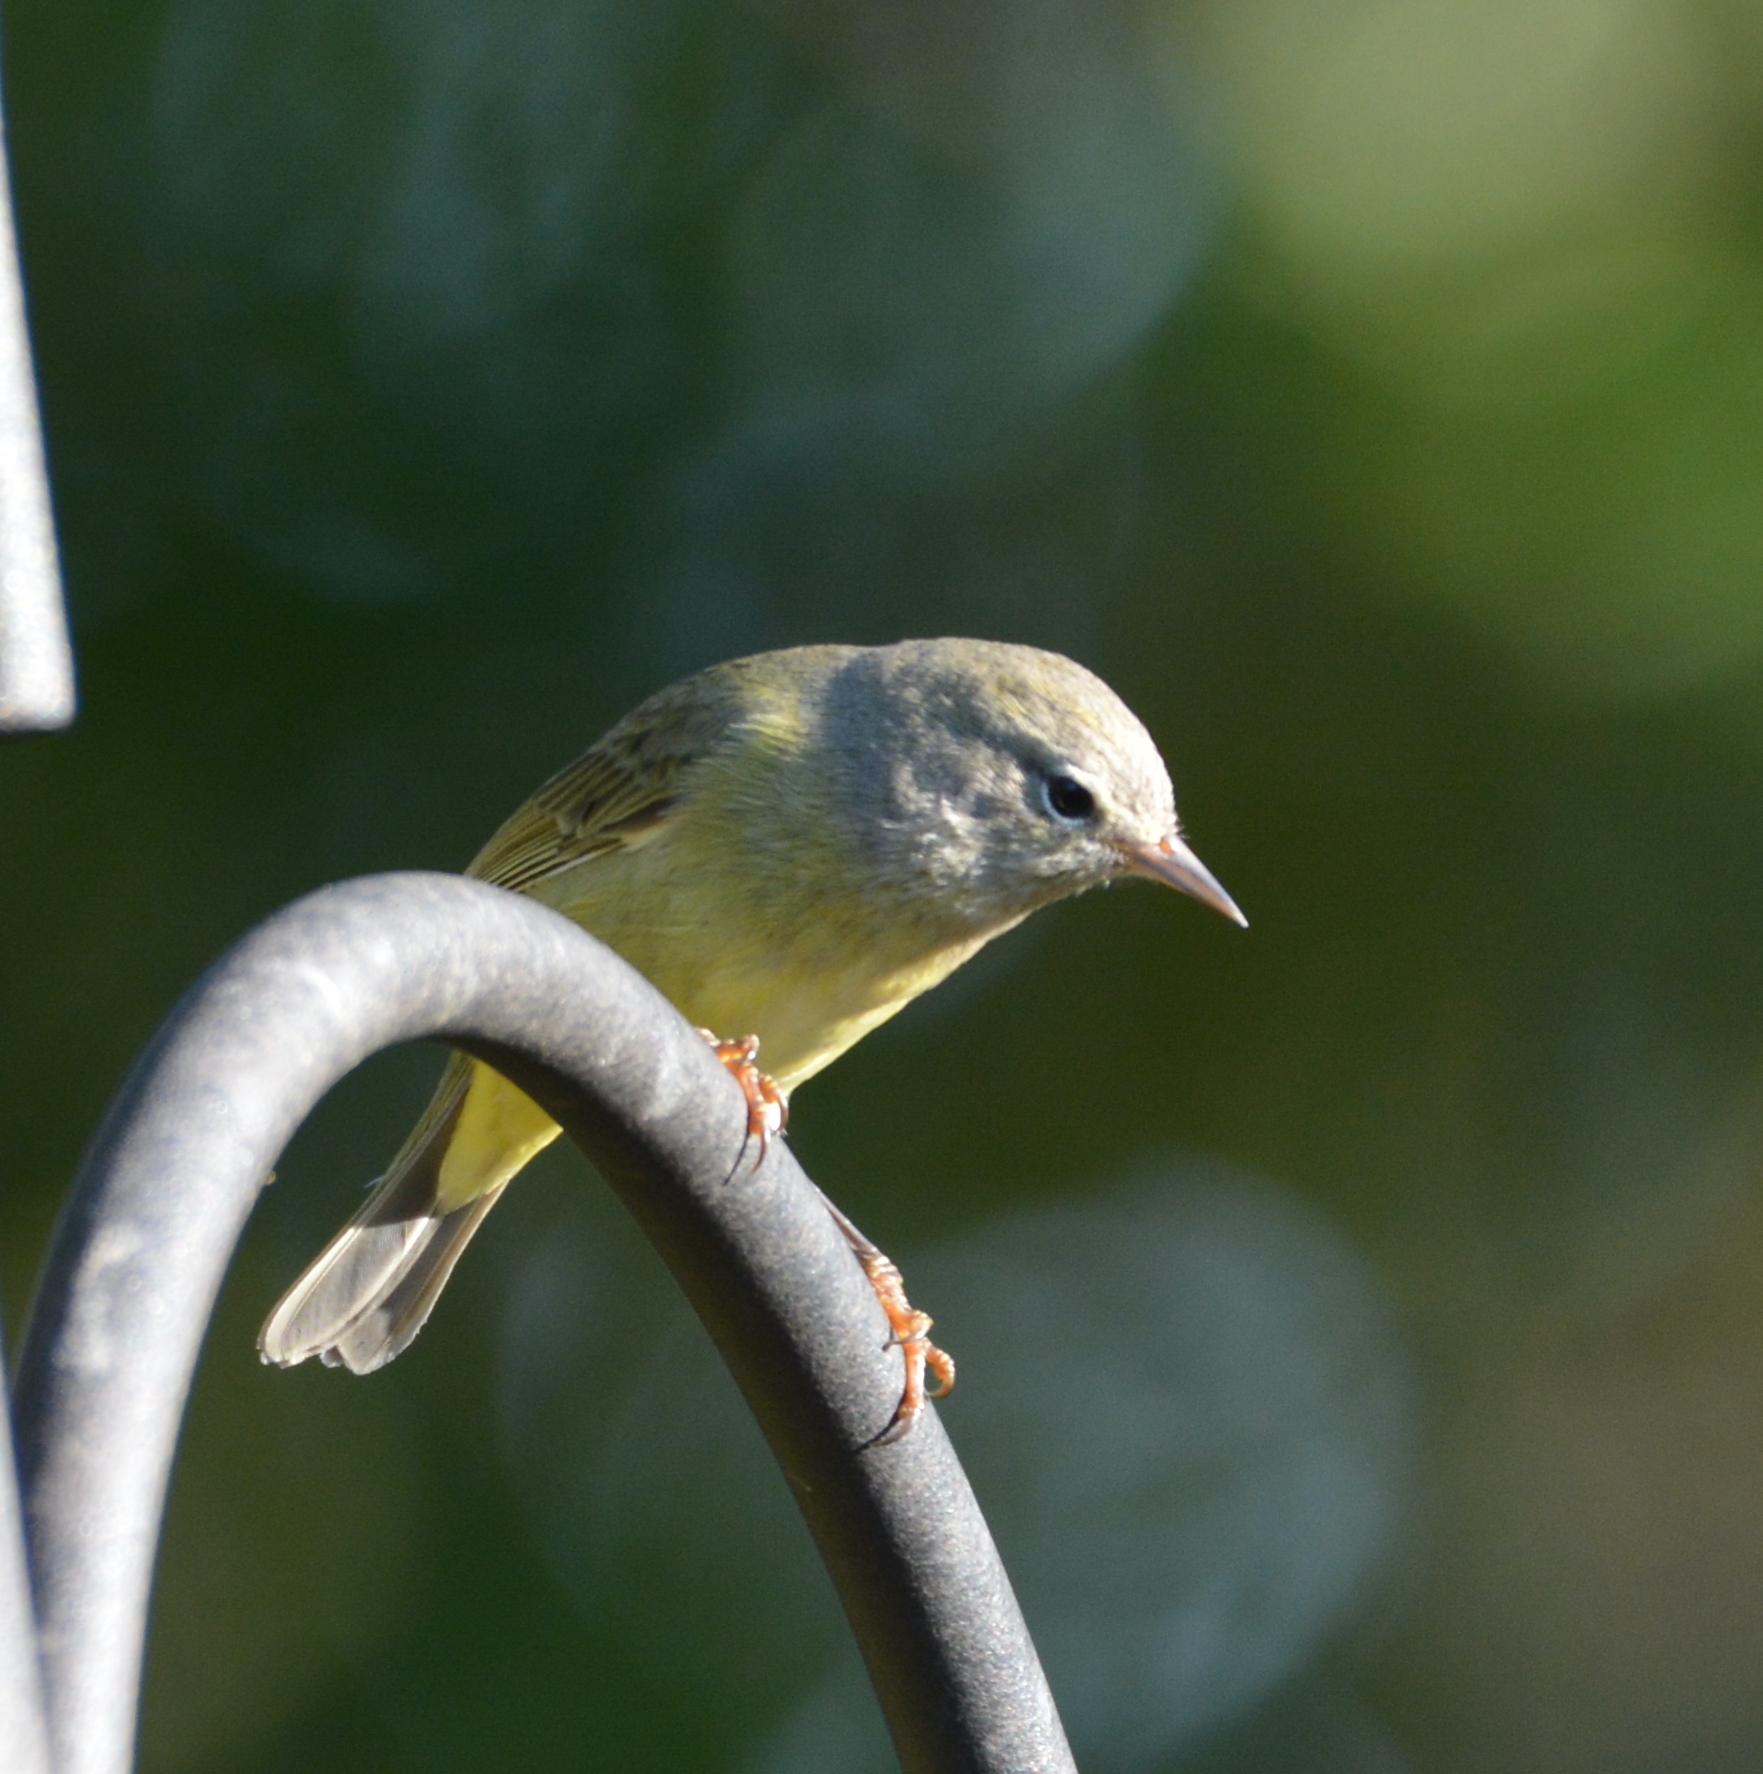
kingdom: Animalia
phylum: Chordata
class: Aves
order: Passeriformes
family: Parulidae
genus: Leiothlypis
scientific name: Leiothlypis celata
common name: Orange-crowned warbler
